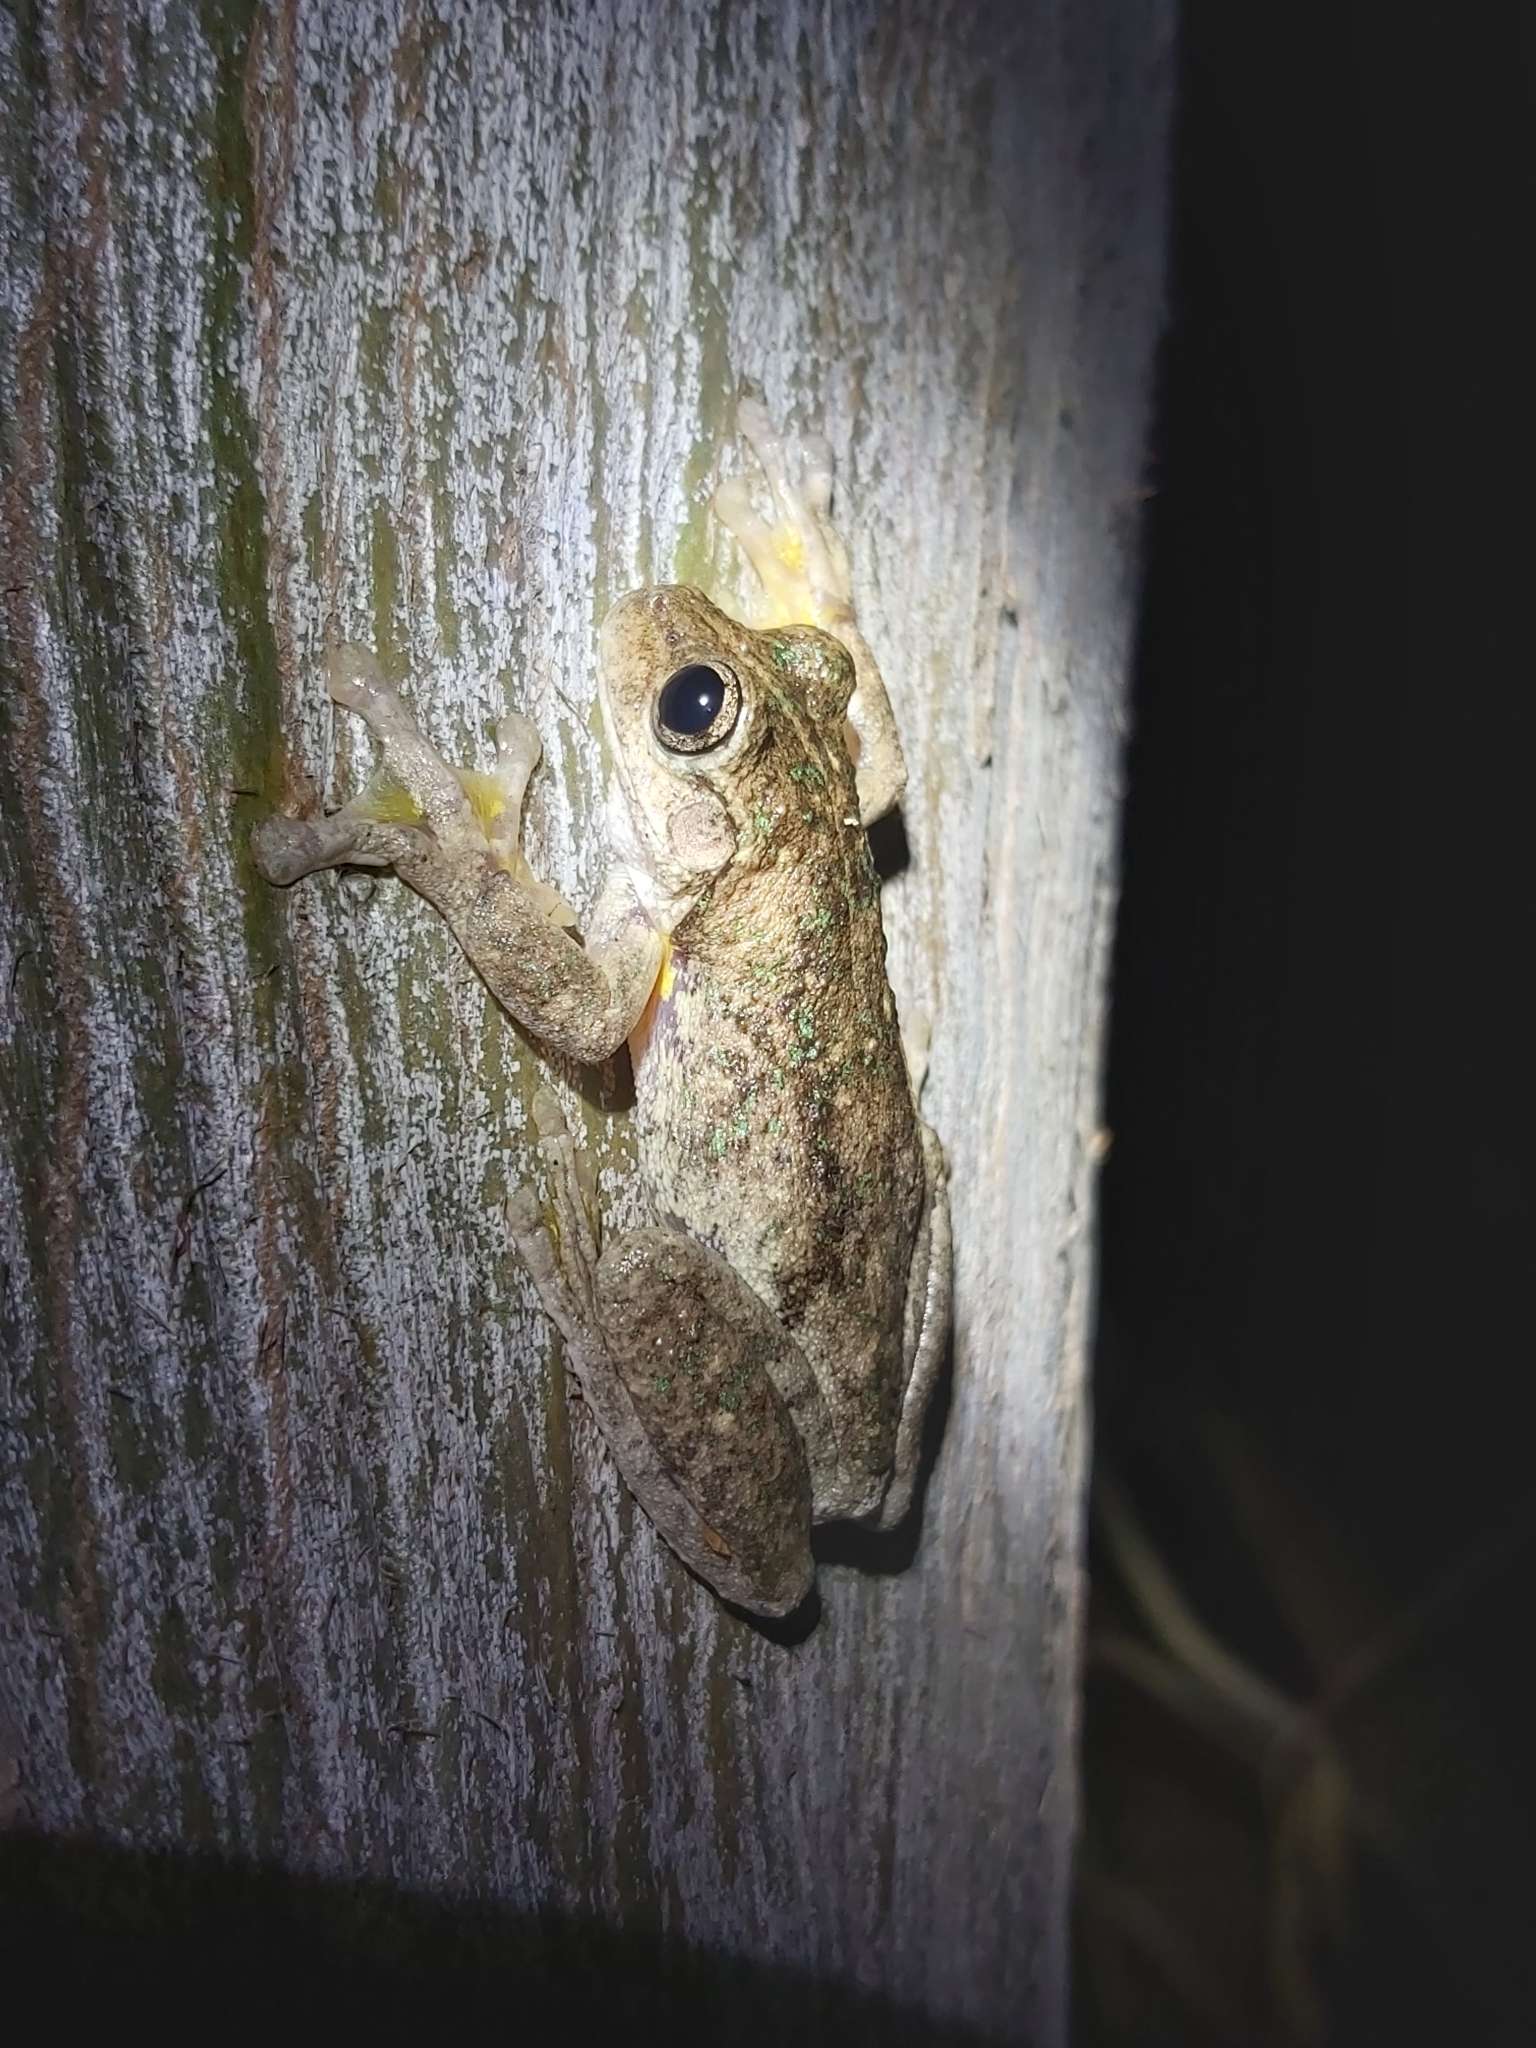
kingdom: Animalia
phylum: Chordata
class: Amphibia
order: Anura
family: Pelodryadidae
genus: Litoria
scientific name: Litoria peronii
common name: Emerald spotted treefrog
